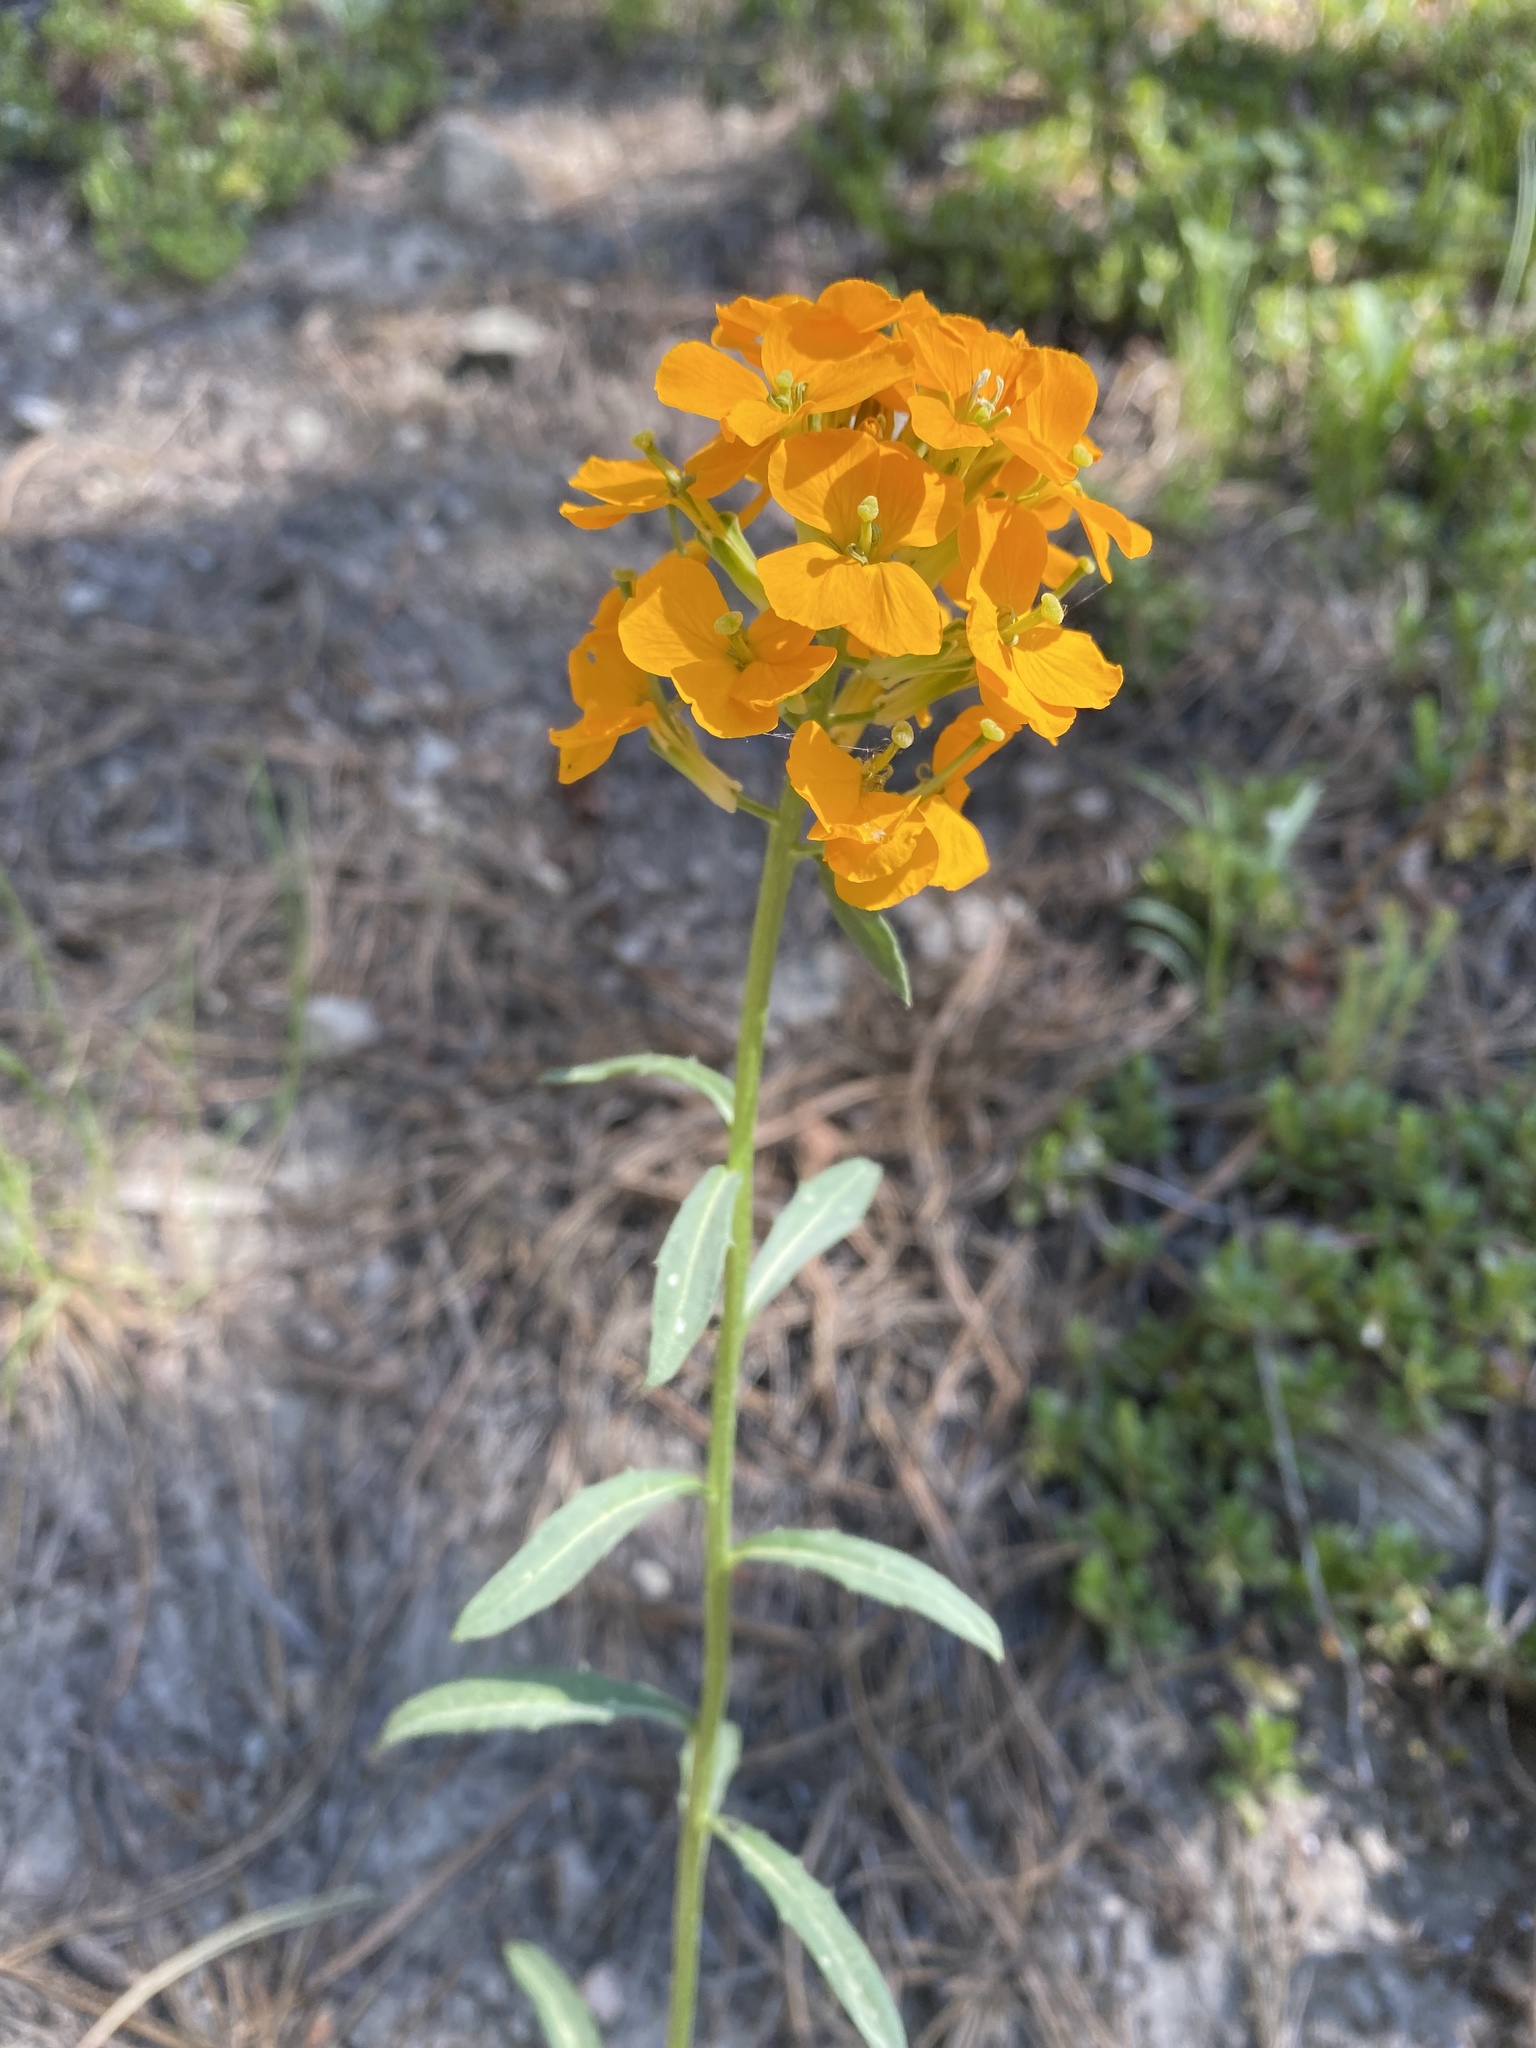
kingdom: Plantae
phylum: Tracheophyta
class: Magnoliopsida
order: Brassicales
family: Brassicaceae
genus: Erysimum
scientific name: Erysimum capitatum
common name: Western wallflower
